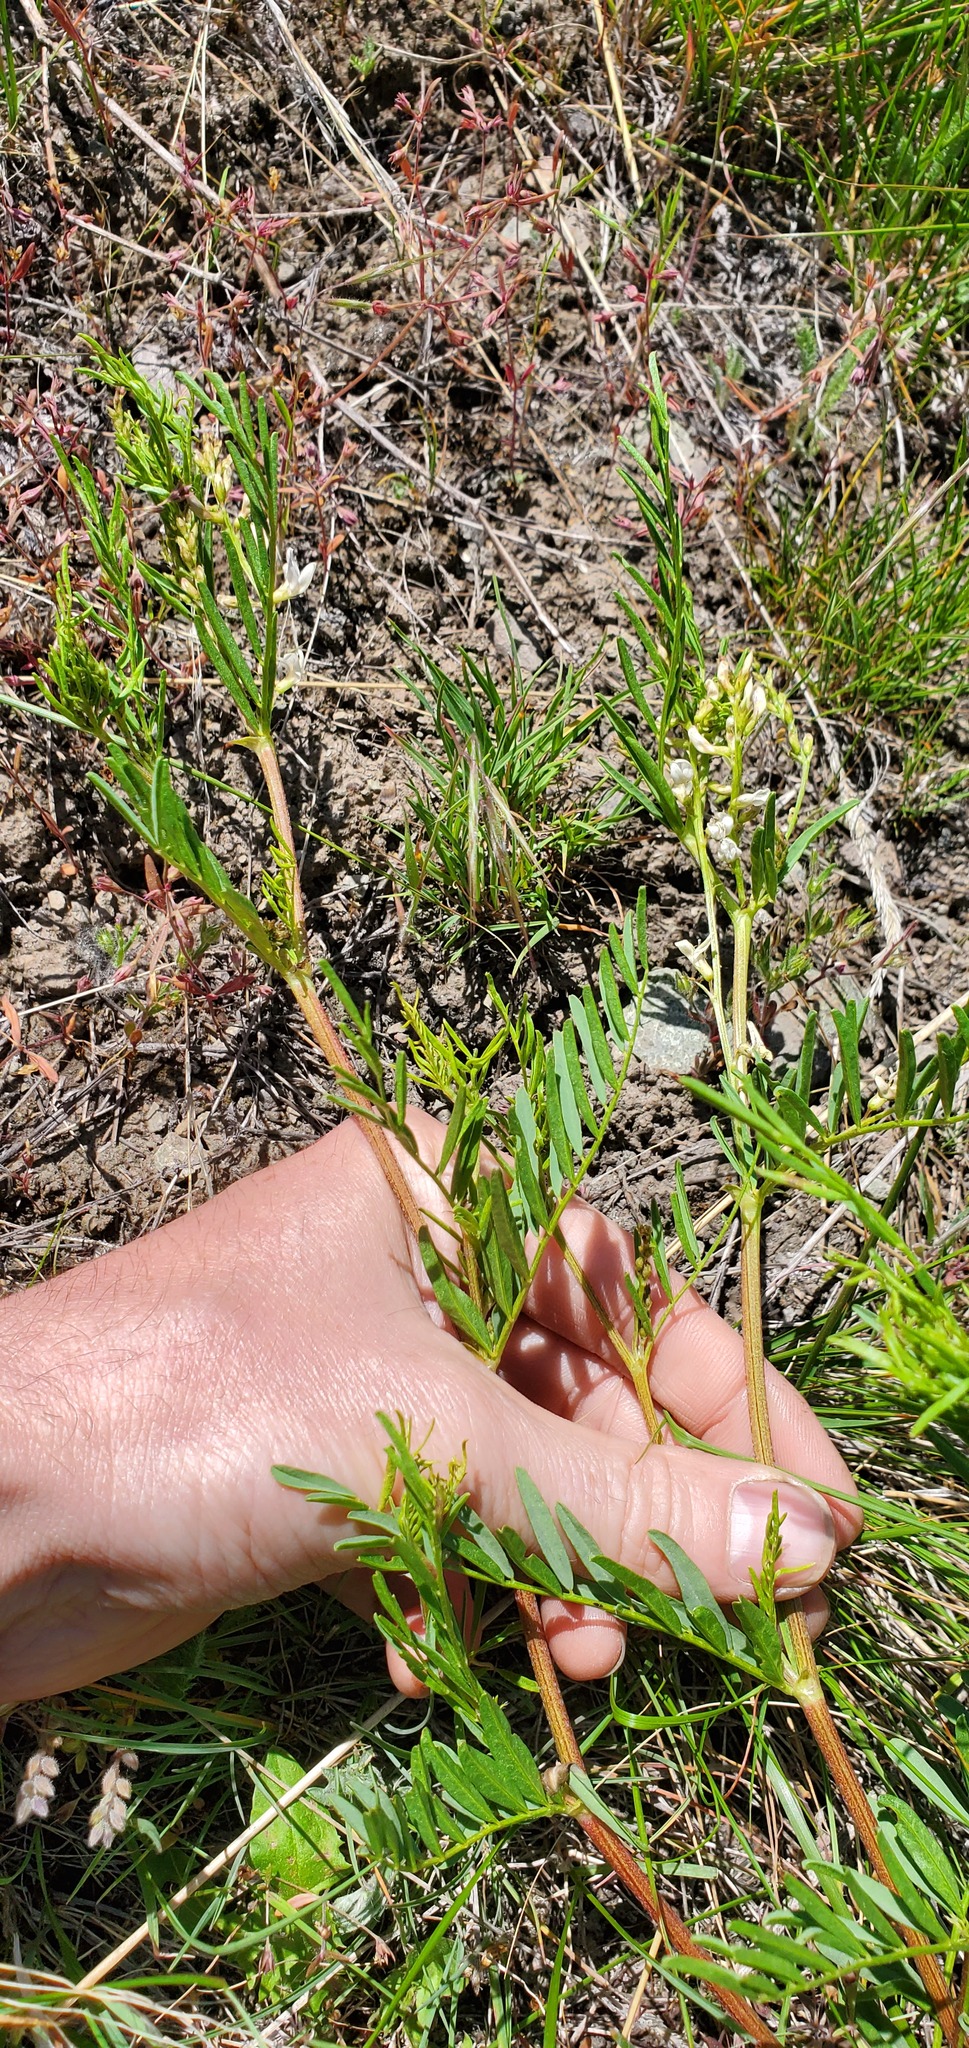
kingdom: Plantae
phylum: Tracheophyta
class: Magnoliopsida
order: Fabales
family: Fabaceae
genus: Astragalus
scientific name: Astragalus tenellus
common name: Pulse milk-vetch
